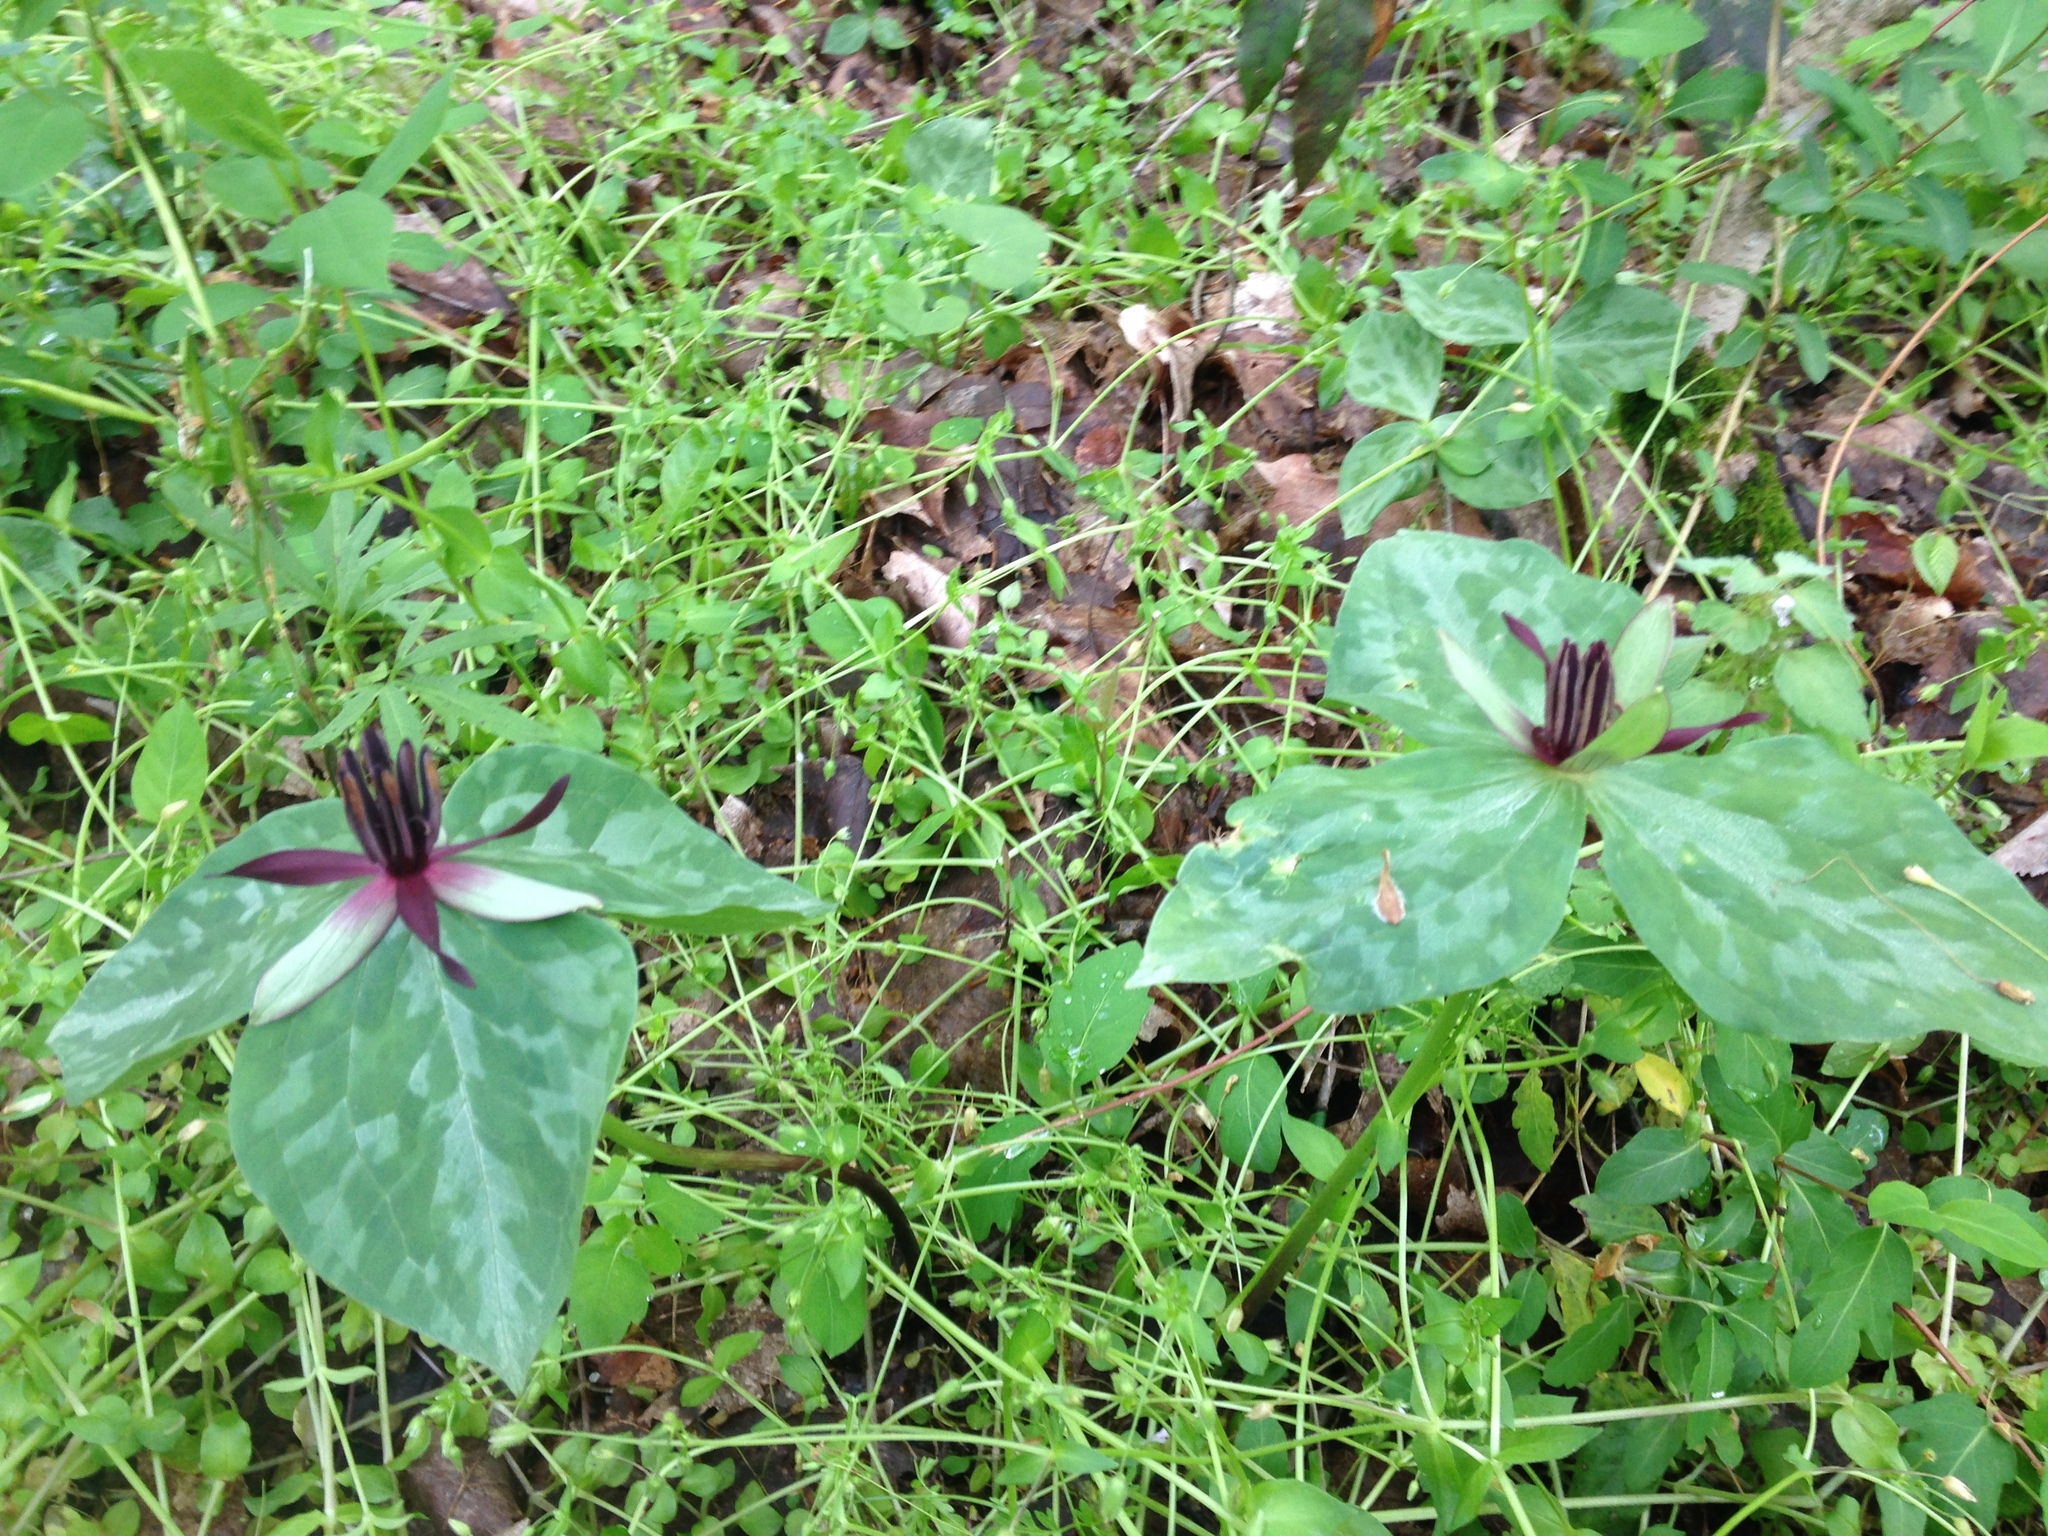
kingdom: Plantae
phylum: Tracheophyta
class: Liliopsida
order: Liliales
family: Melanthiaceae
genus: Trillium
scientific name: Trillium stamineum
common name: Blue ridge wakerobin
